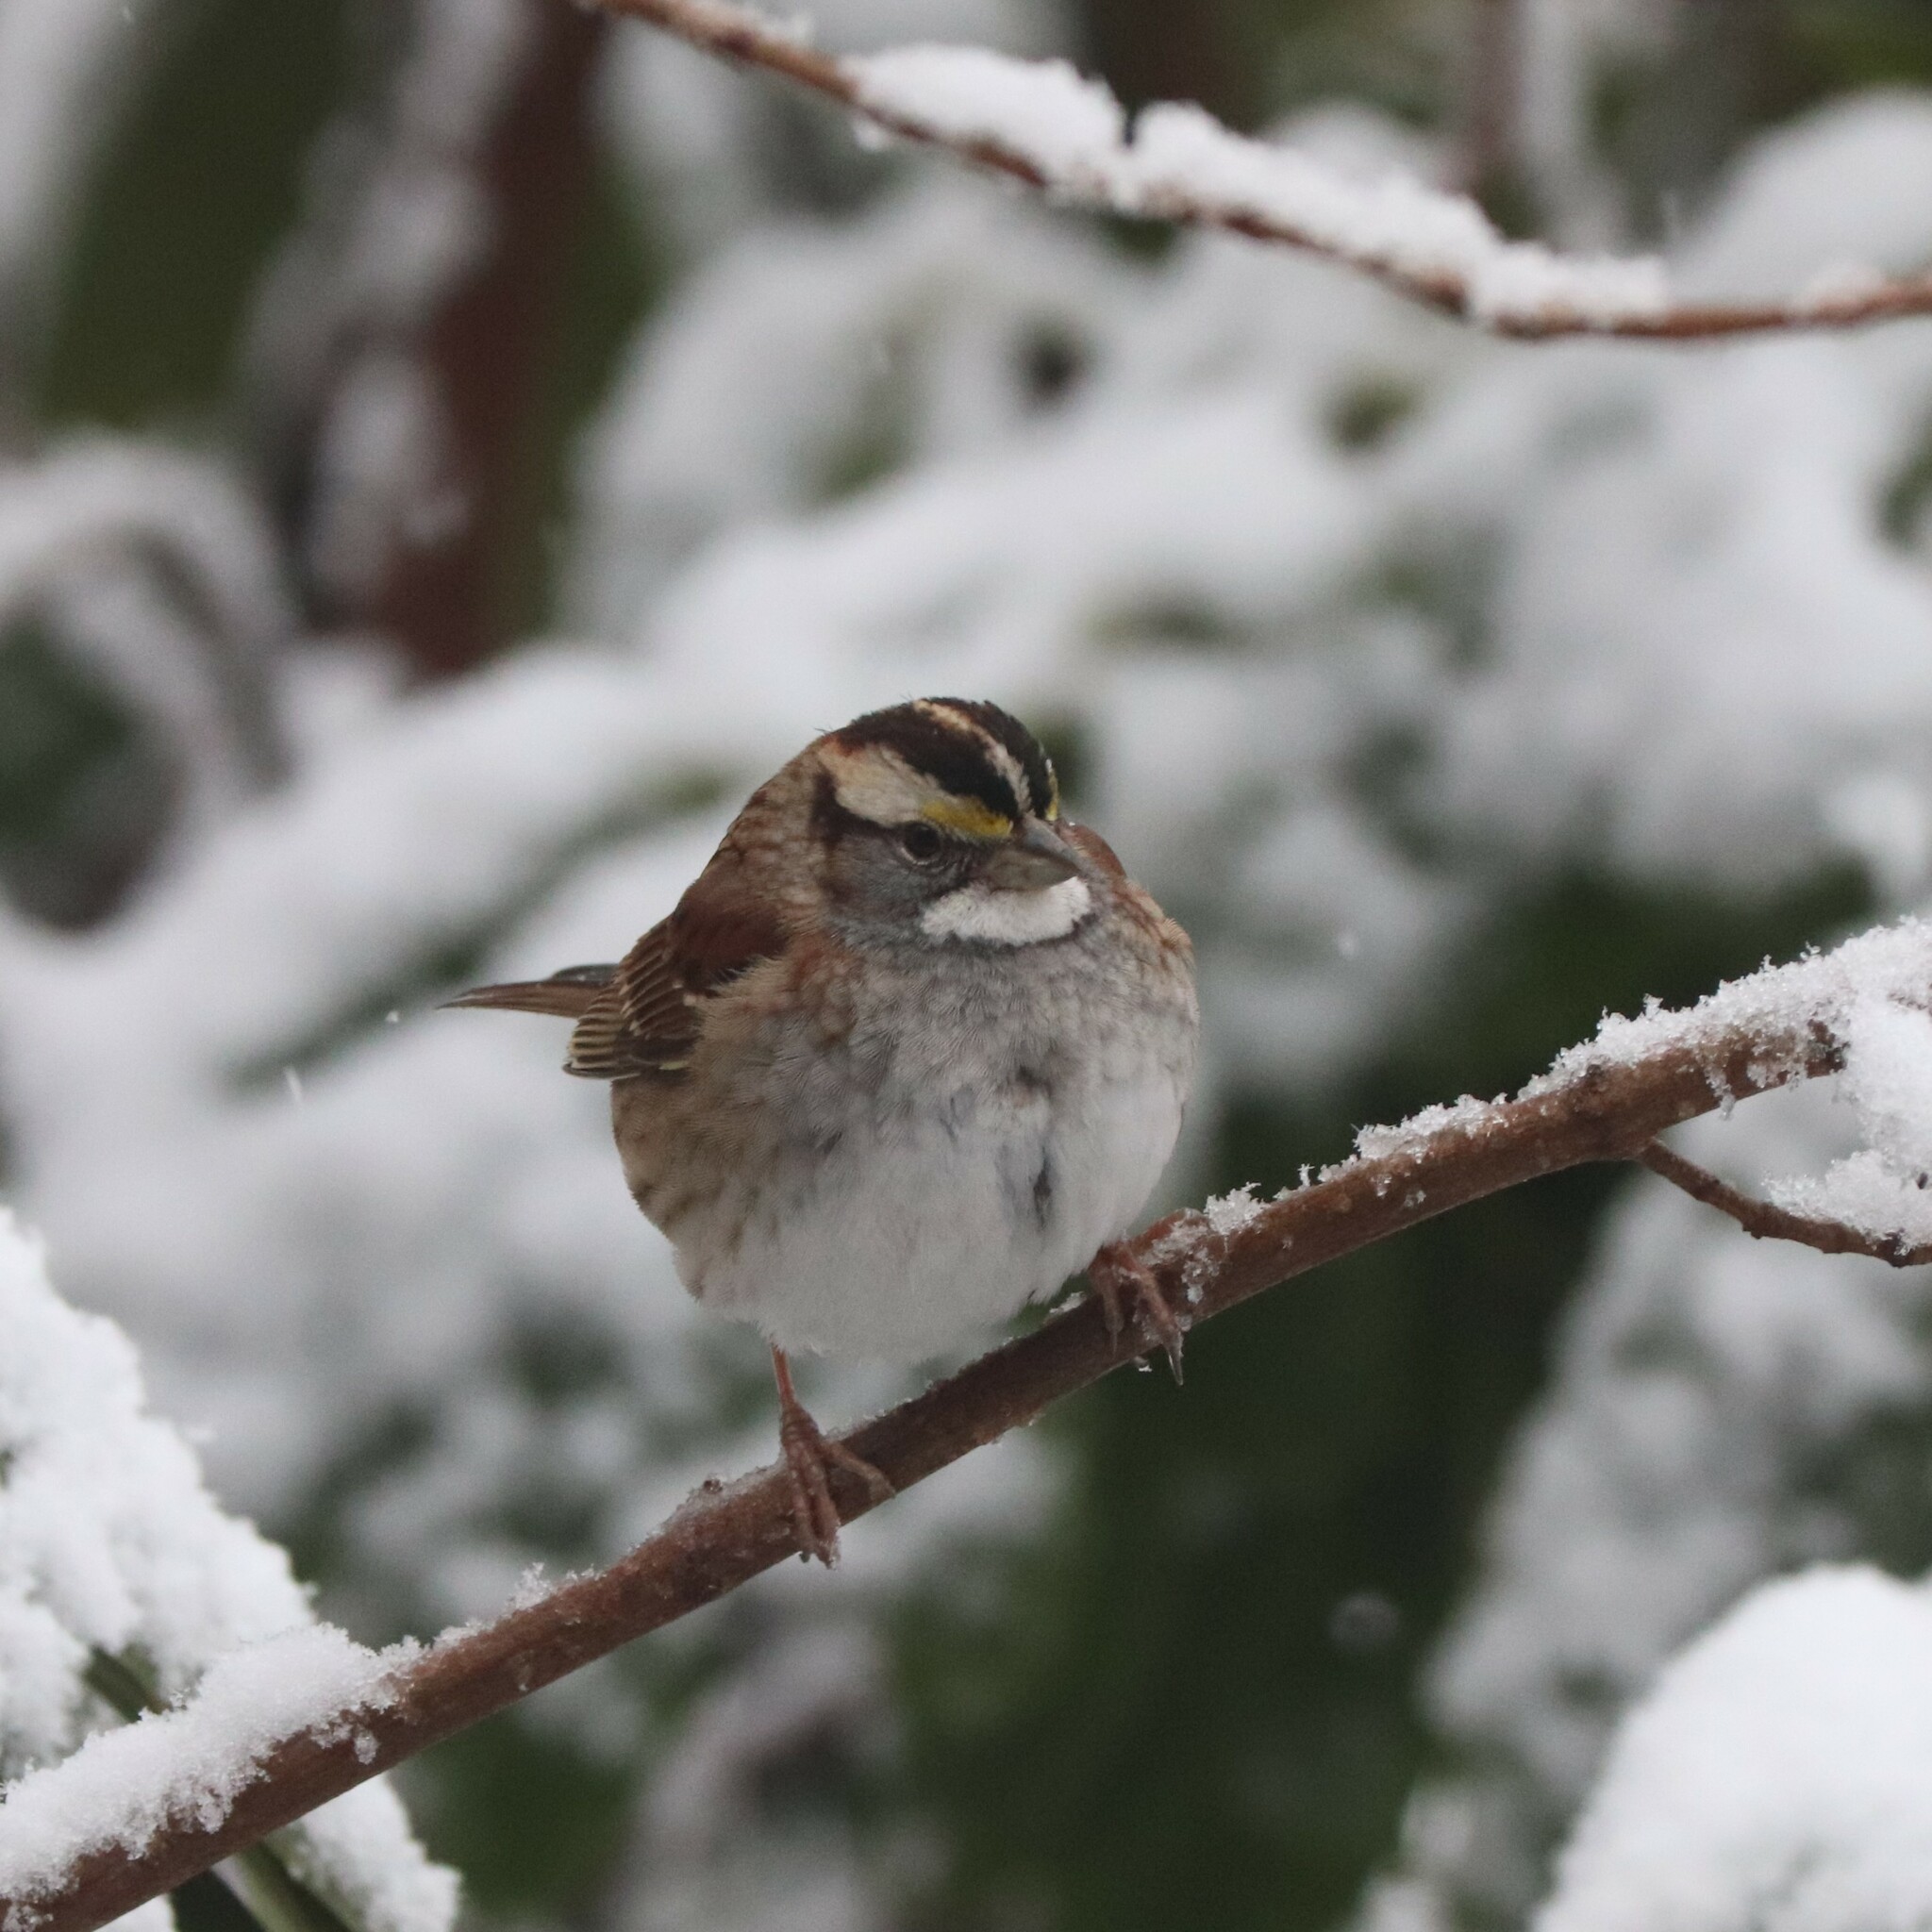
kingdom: Animalia
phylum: Chordata
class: Aves
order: Passeriformes
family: Passerellidae
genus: Zonotrichia
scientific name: Zonotrichia albicollis
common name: White-throated sparrow
